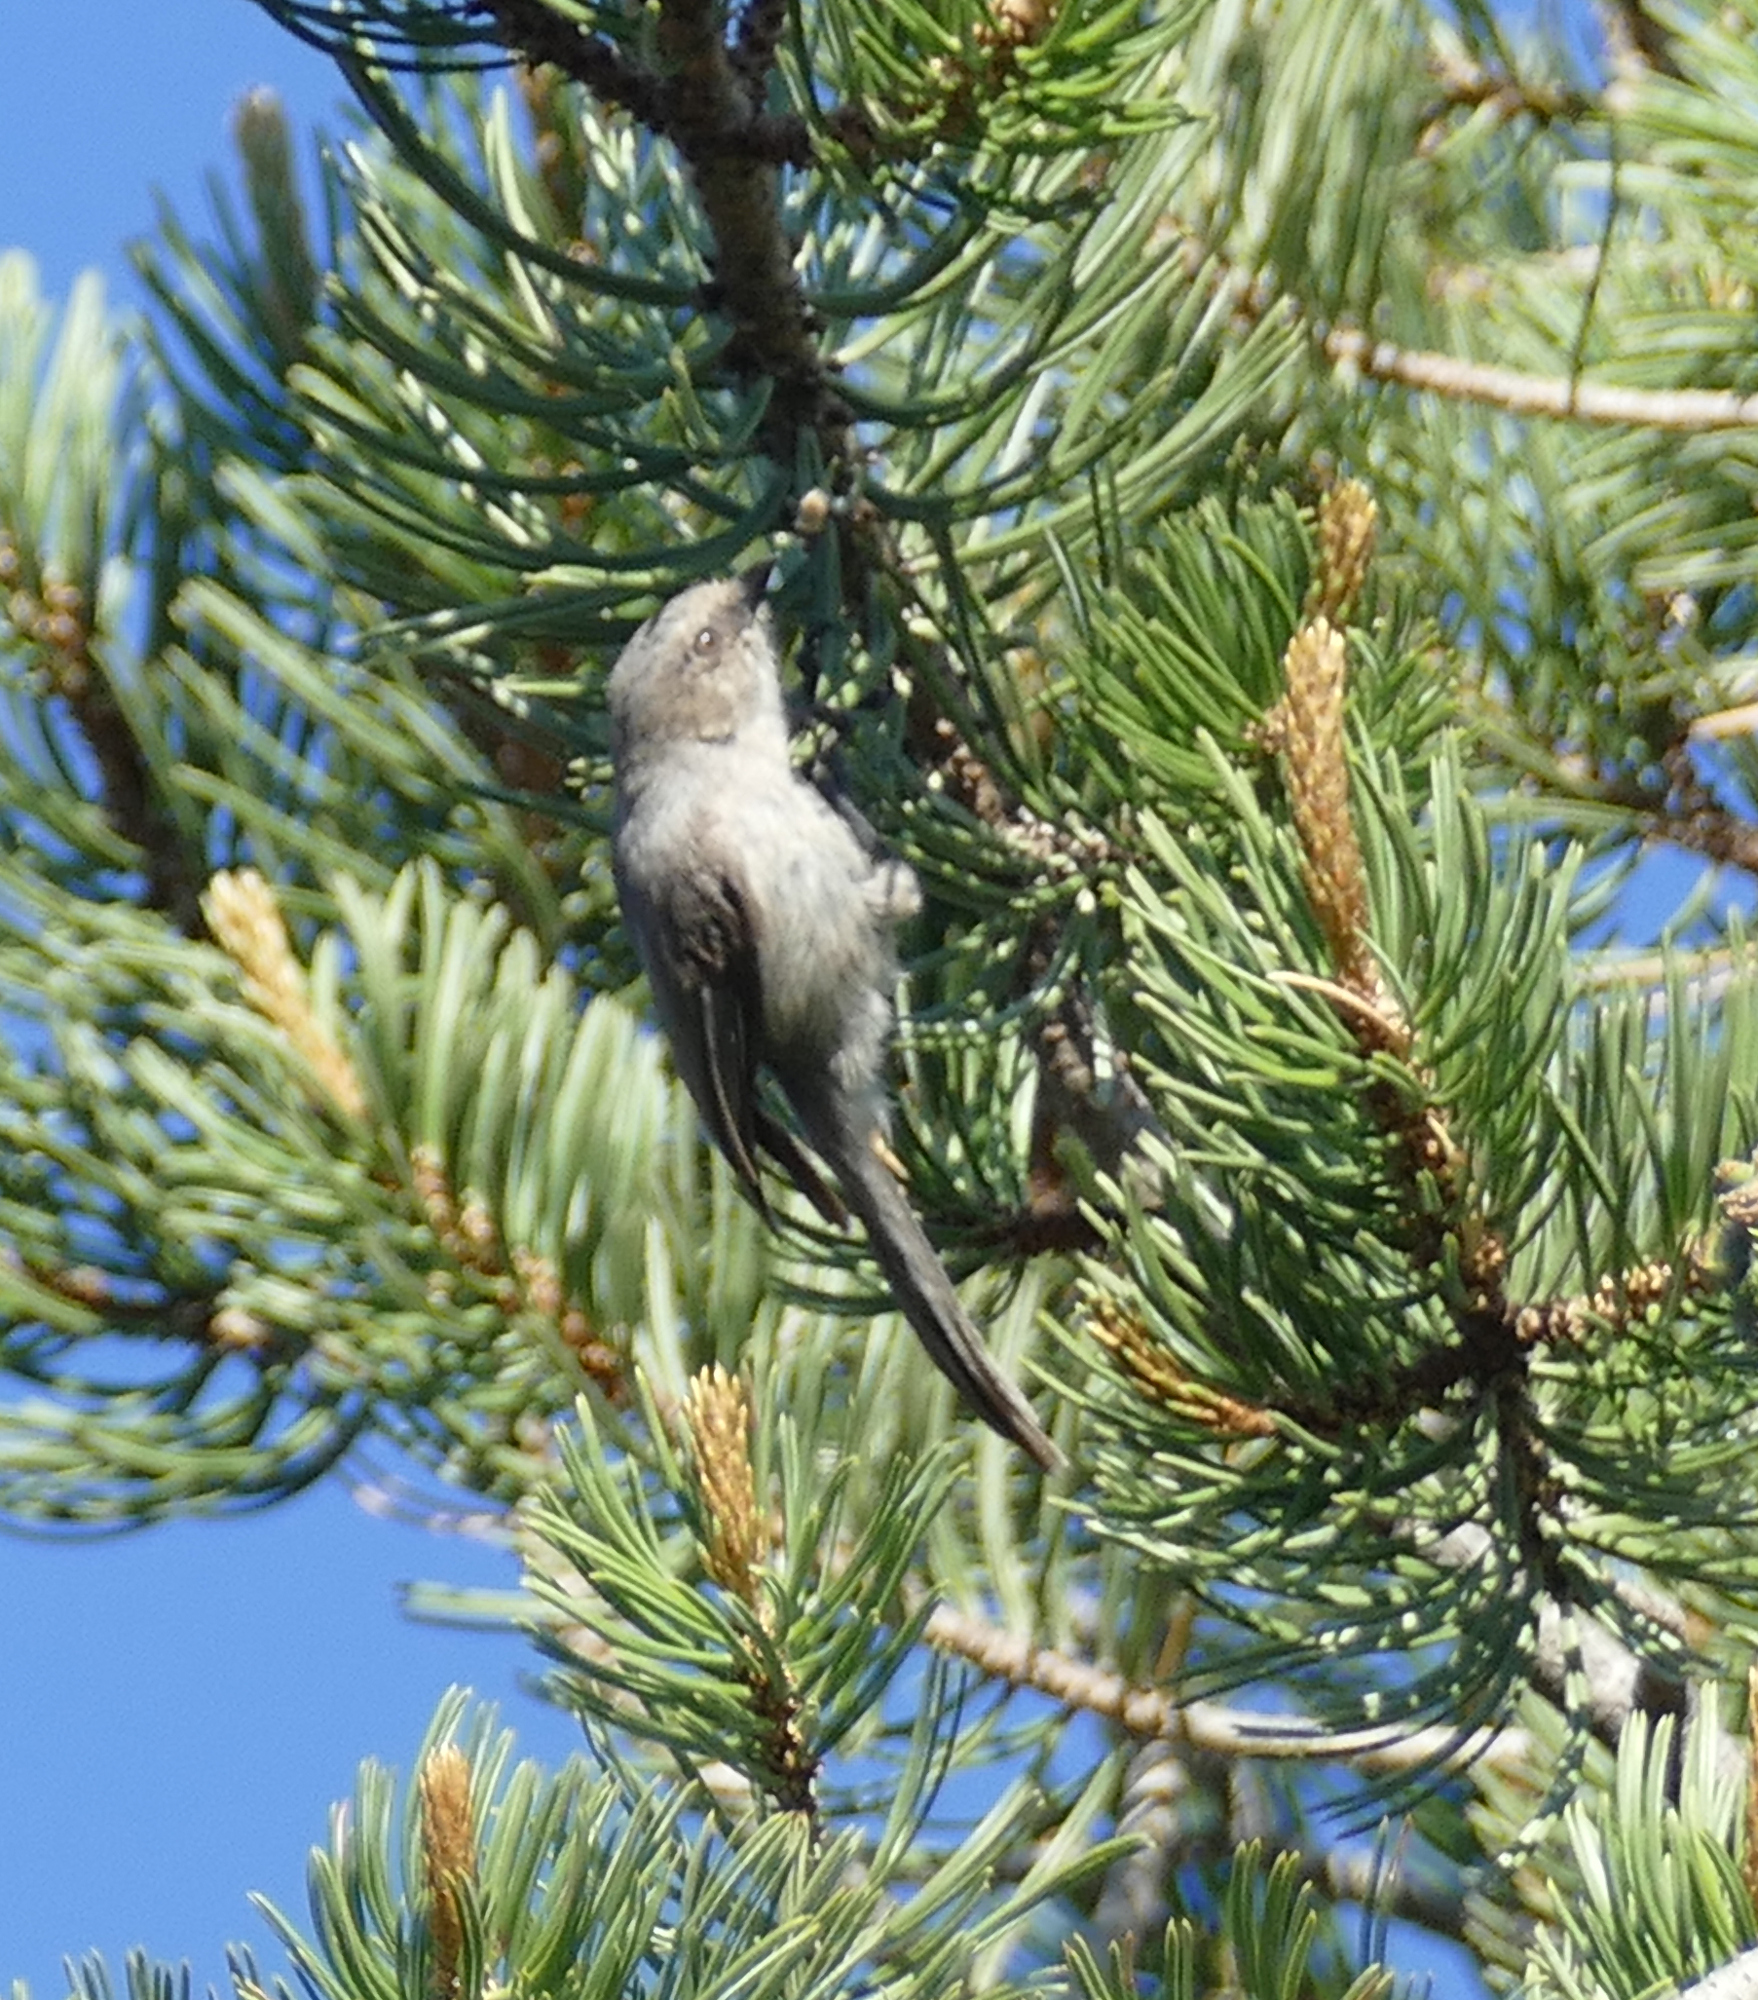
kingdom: Animalia
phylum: Chordata
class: Aves
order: Passeriformes
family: Aegithalidae
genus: Psaltriparus
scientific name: Psaltriparus minimus
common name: American bushtit
